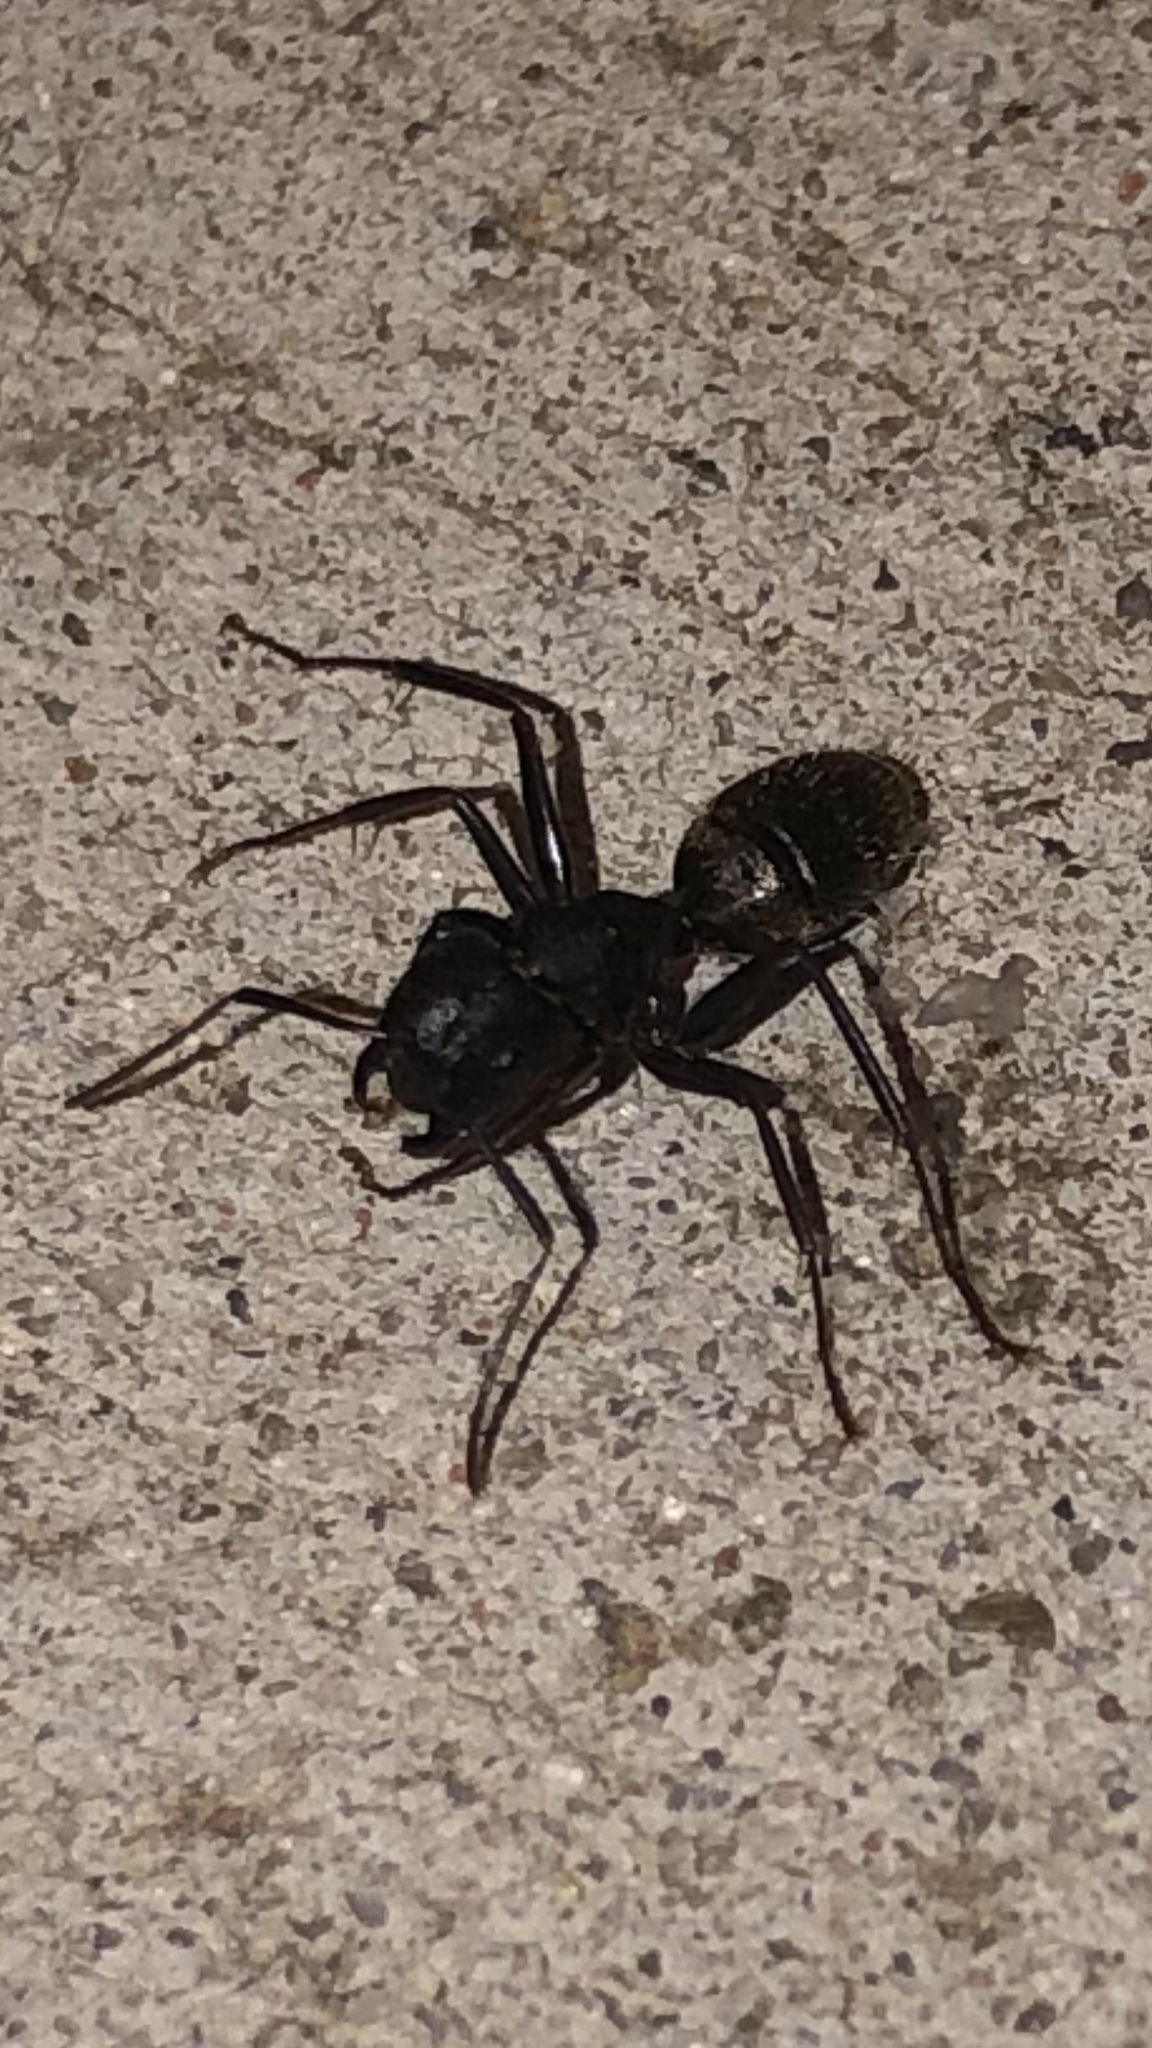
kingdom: Animalia
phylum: Arthropoda
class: Insecta
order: Hymenoptera
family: Formicidae
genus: Camponotus
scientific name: Camponotus pennsylvanicus
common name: Black carpenter ant
